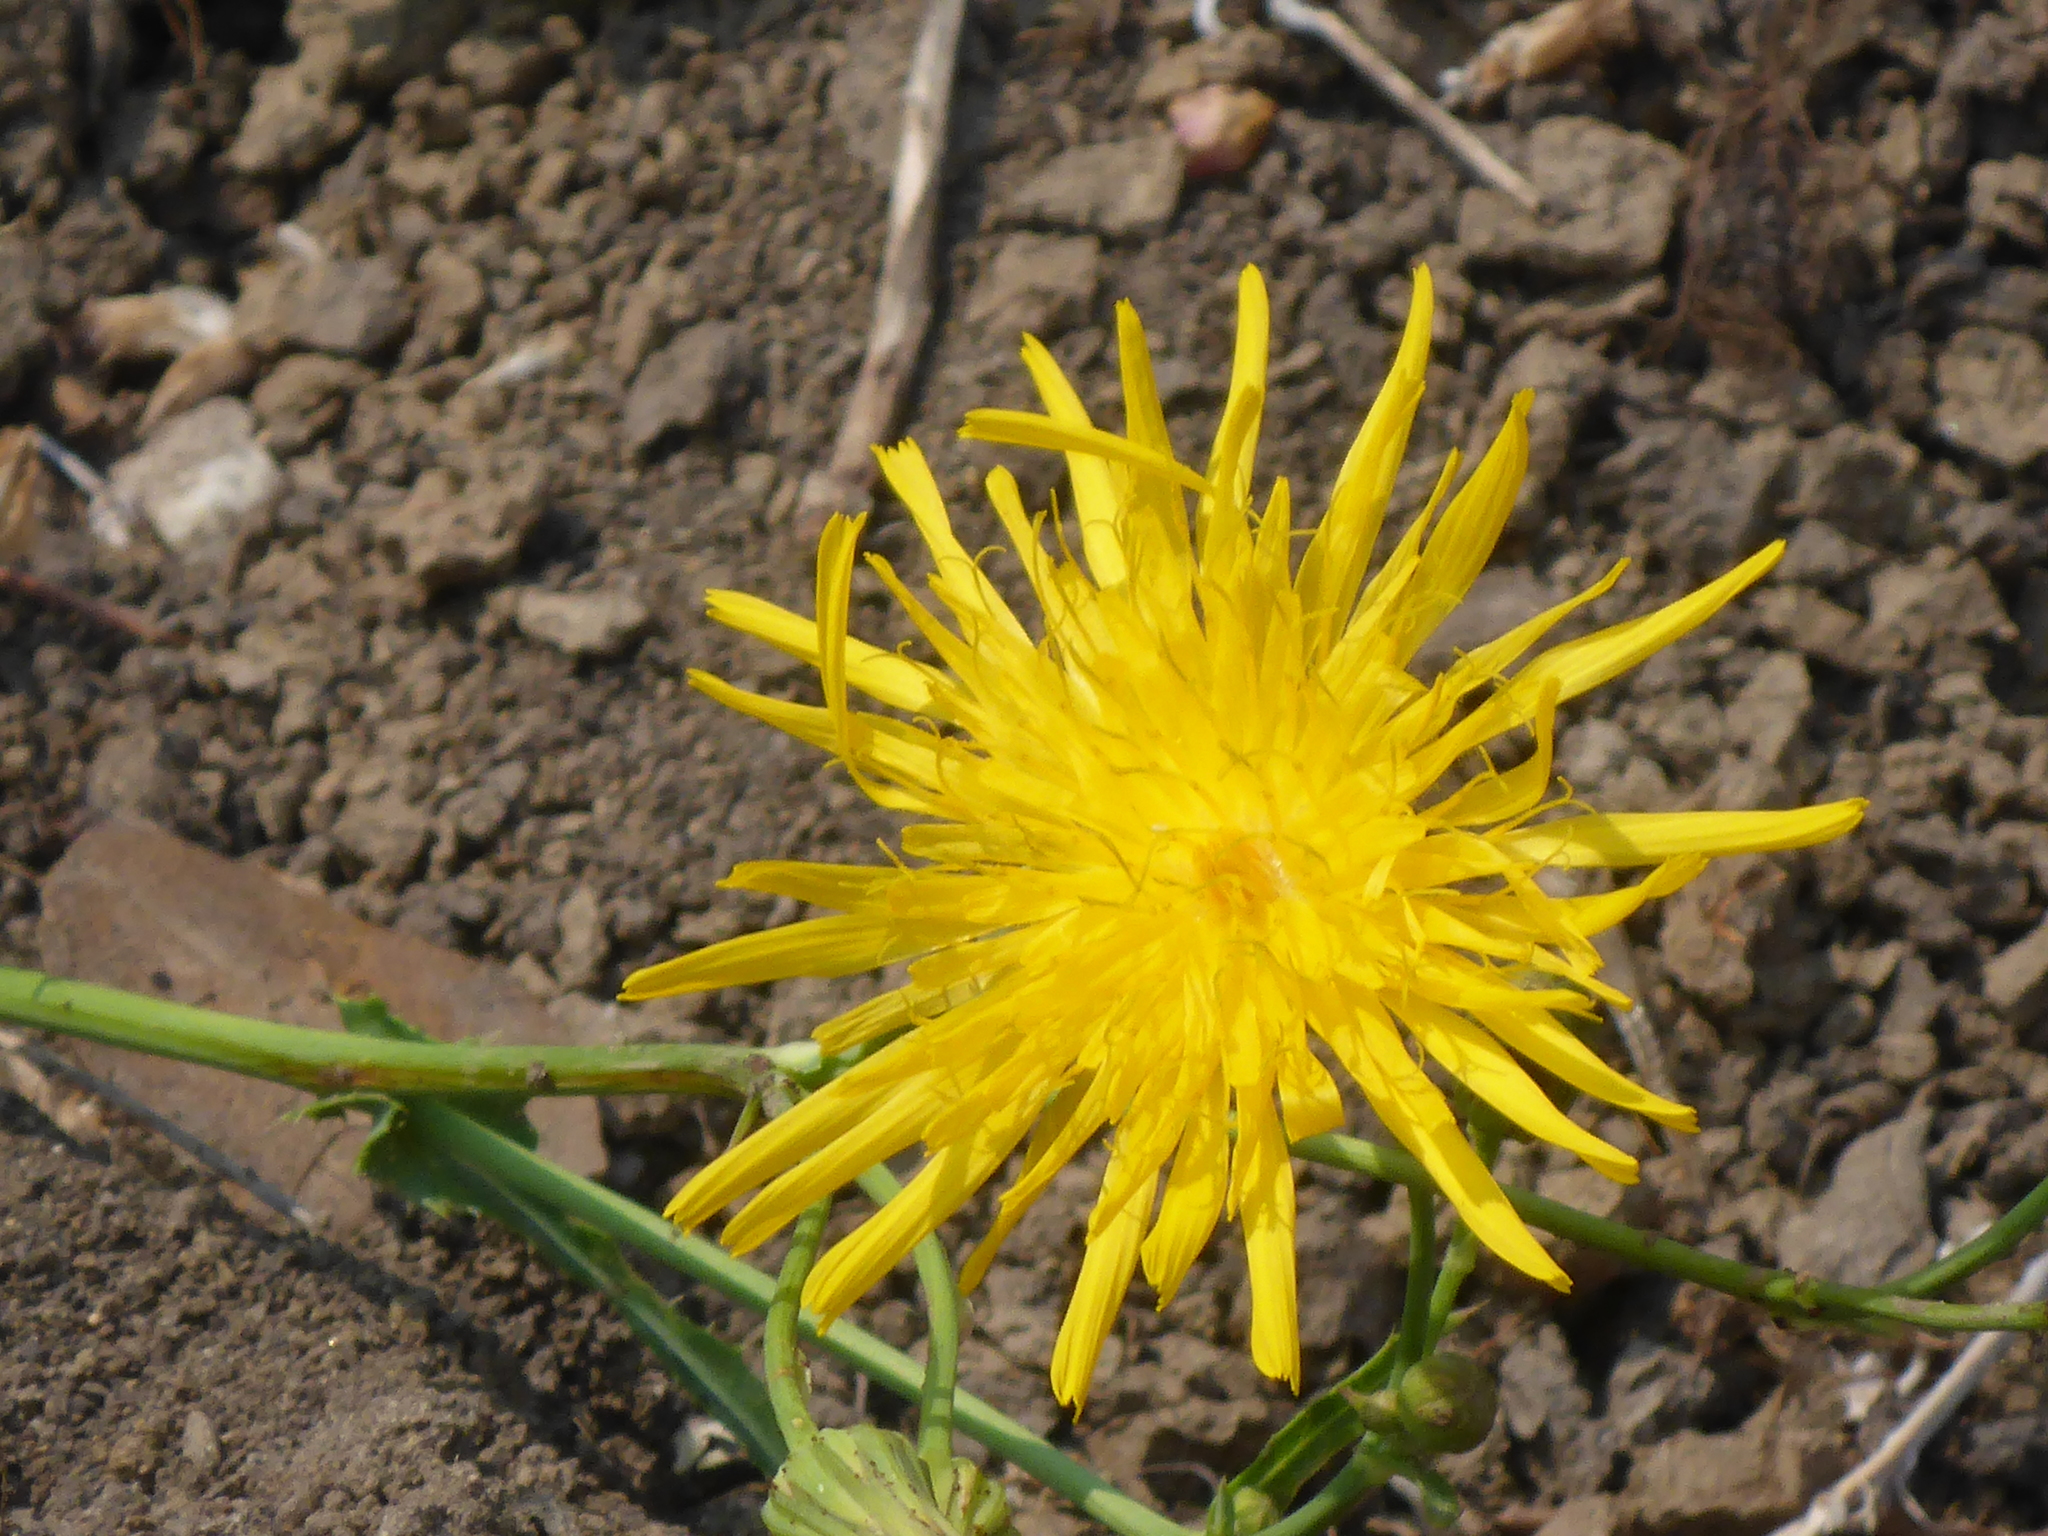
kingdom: Plantae
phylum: Tracheophyta
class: Magnoliopsida
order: Asterales
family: Asteraceae
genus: Sonchus
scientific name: Sonchus arvensis
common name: Perennial sow-thistle
